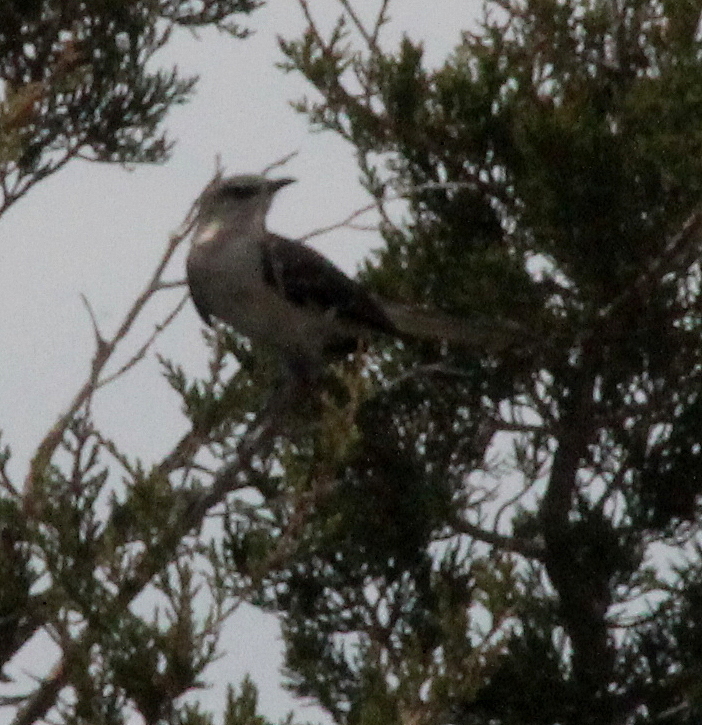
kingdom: Animalia
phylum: Chordata
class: Aves
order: Passeriformes
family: Mimidae
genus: Mimus
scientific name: Mimus polyglottos
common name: Northern mockingbird
